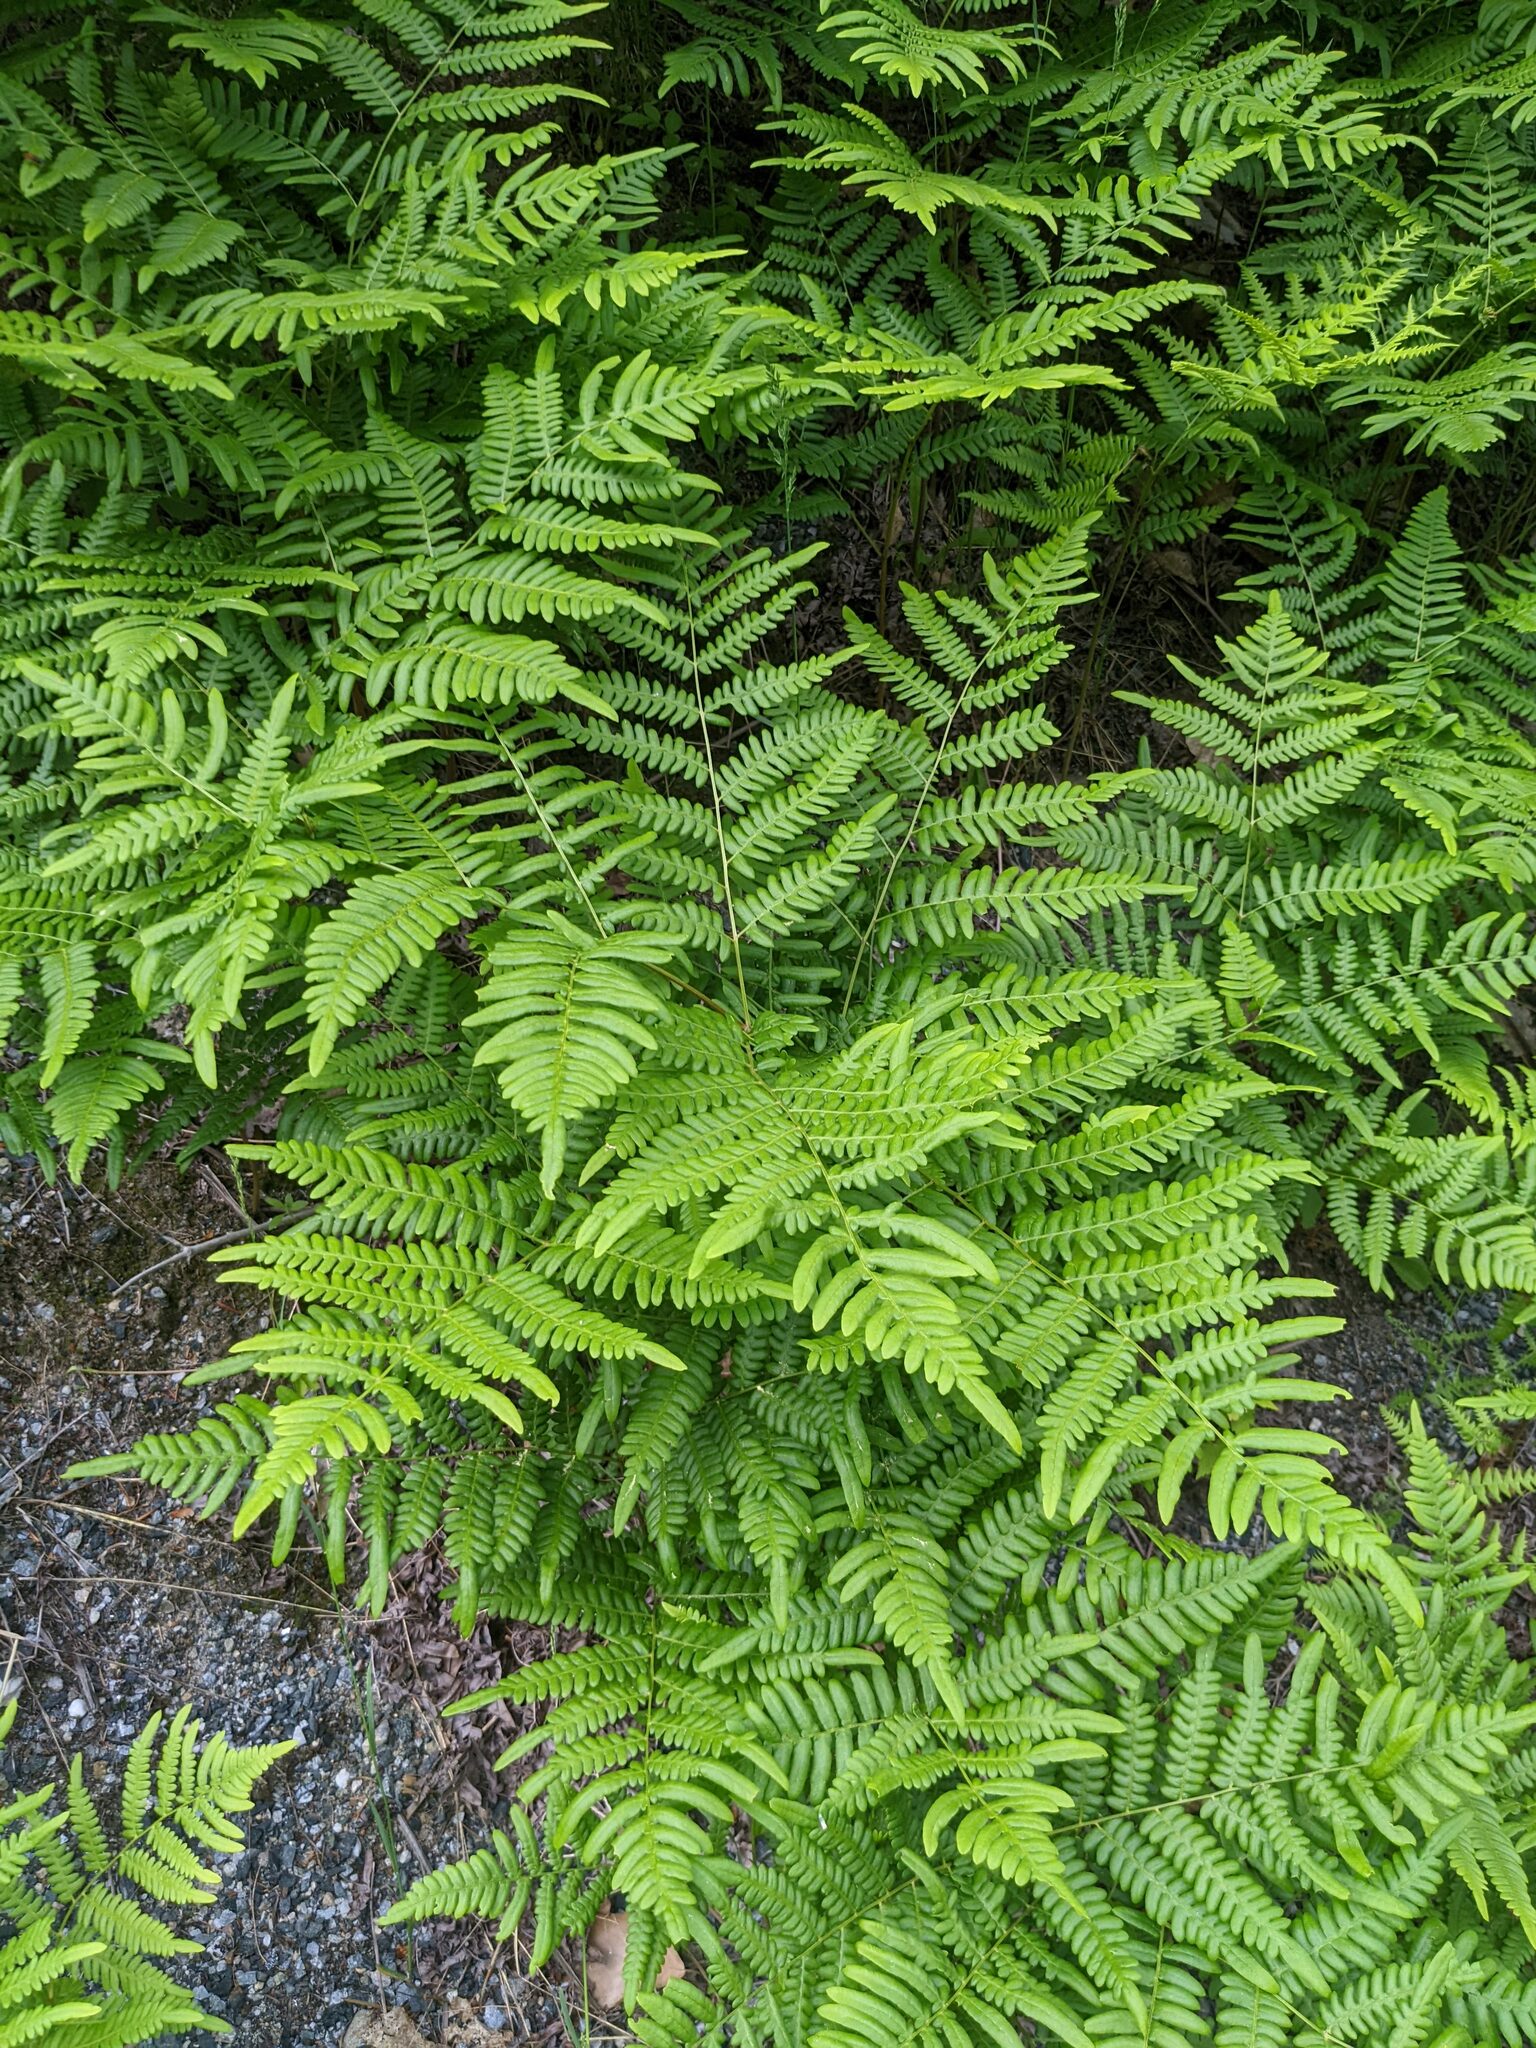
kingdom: Plantae
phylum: Tracheophyta
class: Polypodiopsida
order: Polypodiales
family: Dennstaedtiaceae
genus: Pteridium
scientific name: Pteridium aquilinum
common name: Bracken
